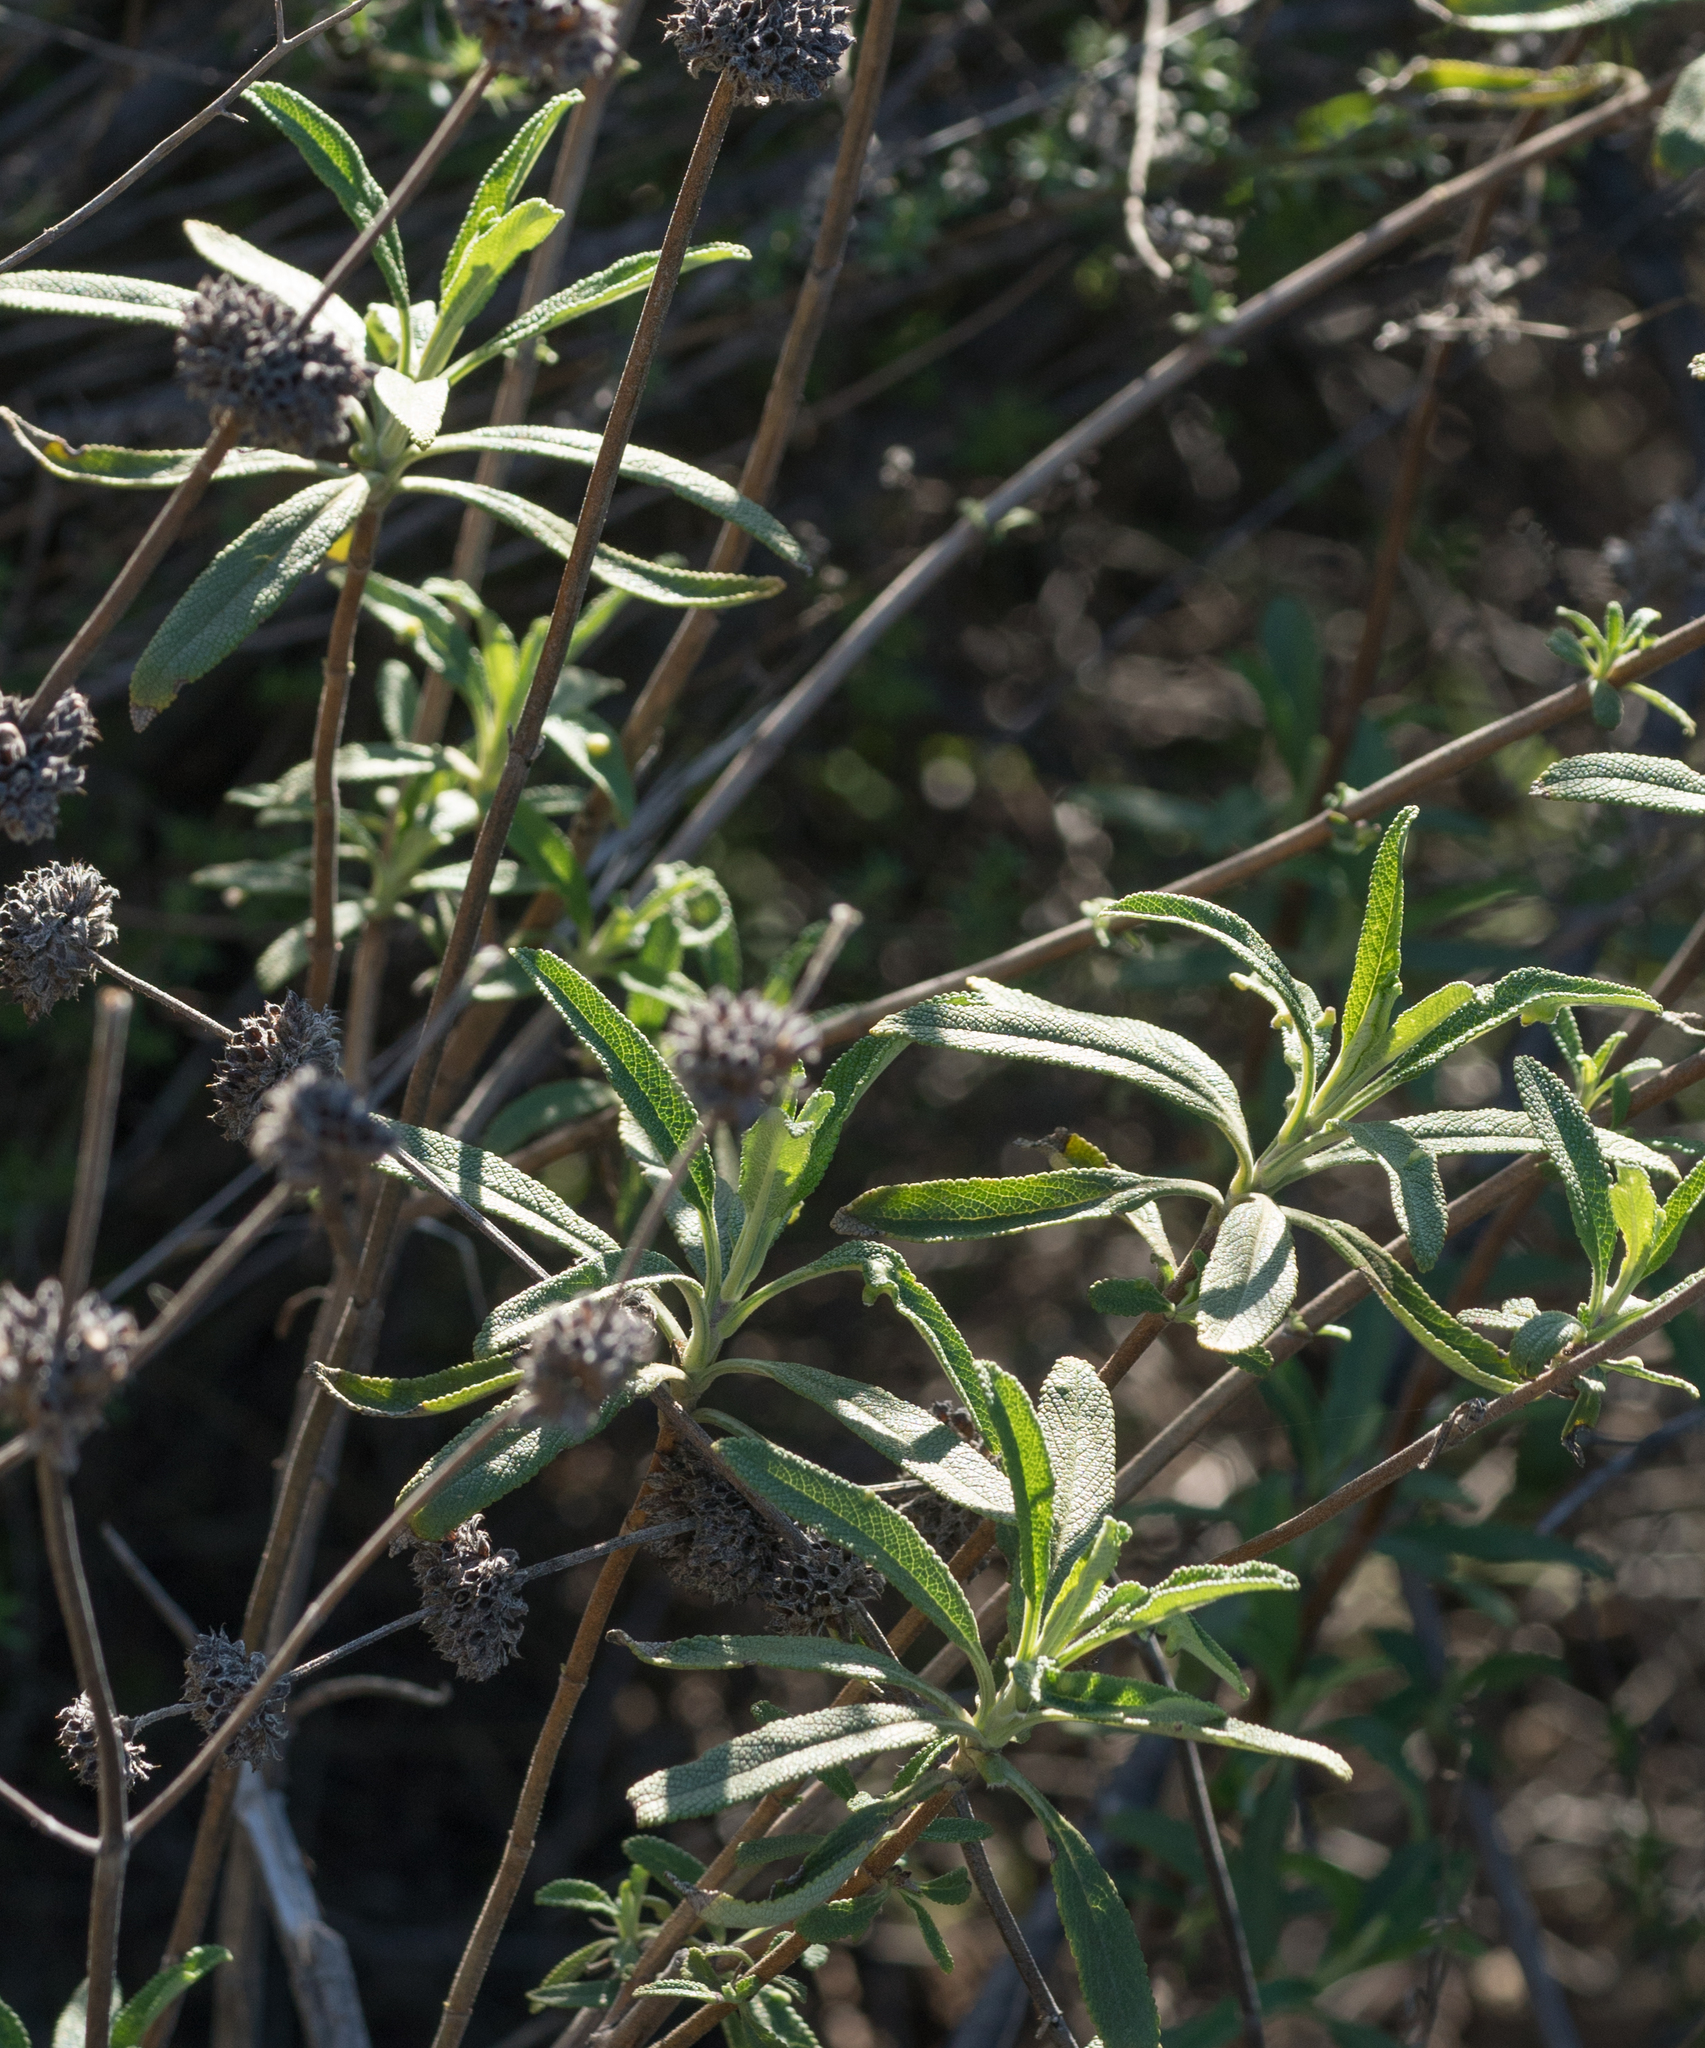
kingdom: Plantae
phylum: Tracheophyta
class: Magnoliopsida
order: Lamiales
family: Lamiaceae
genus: Salvia
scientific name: Salvia mellifera
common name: Black sage
